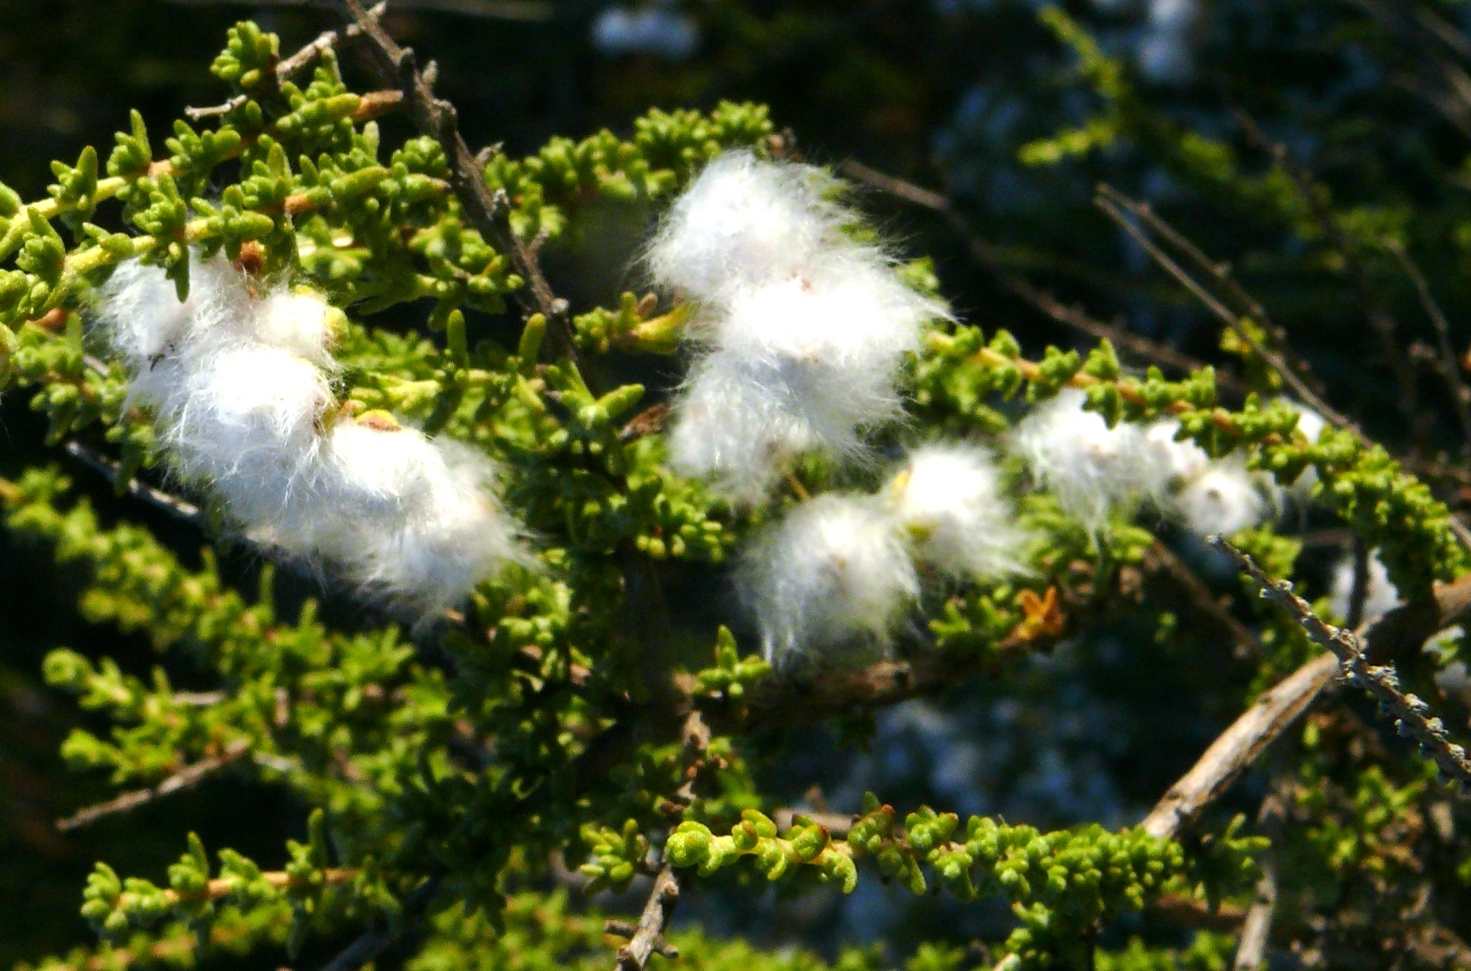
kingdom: Plantae
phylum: Tracheophyta
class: Magnoliopsida
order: Asterales
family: Asteraceae
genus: Eriocephalus
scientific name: Eriocephalus ericoides
